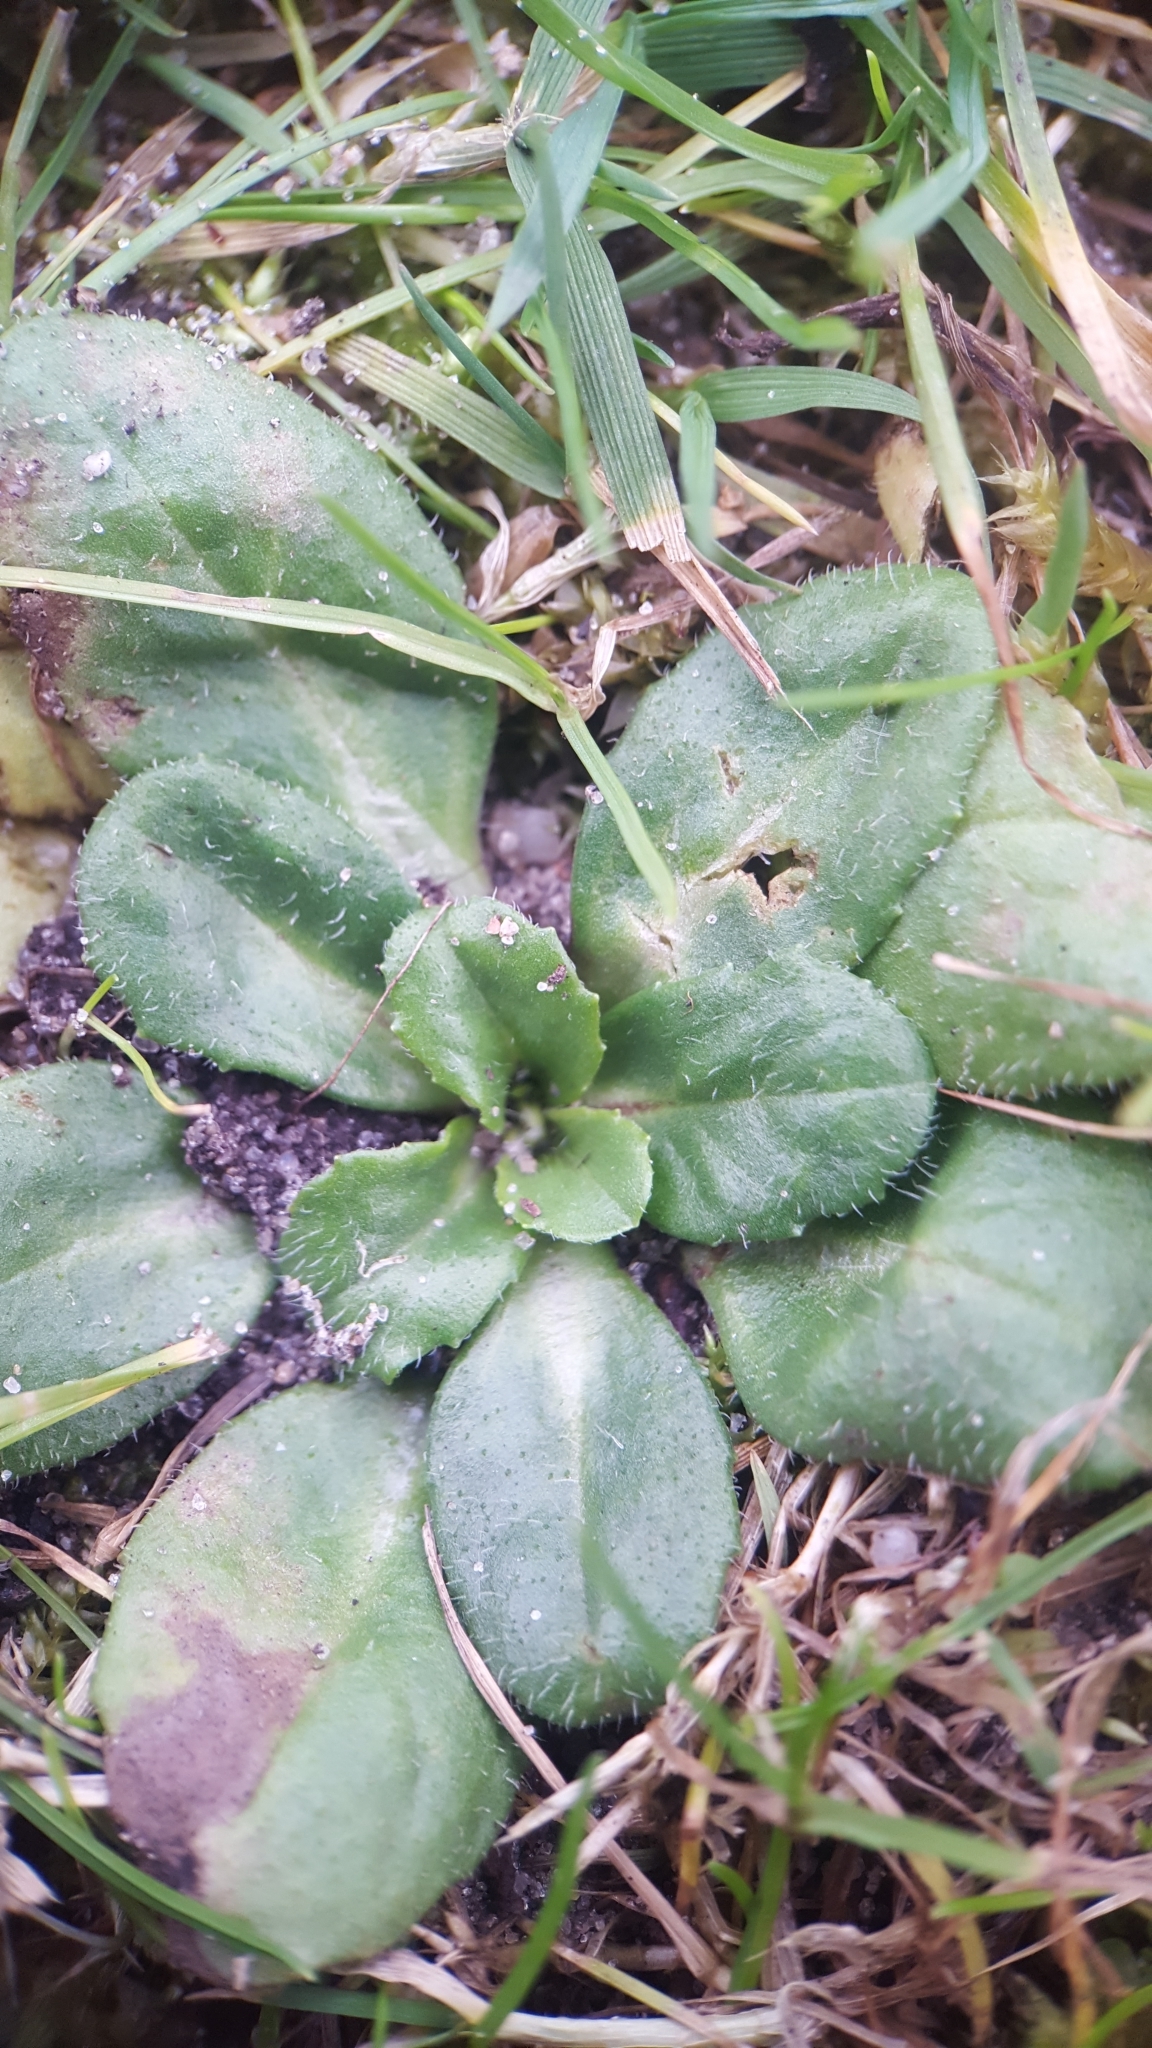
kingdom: Plantae
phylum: Tracheophyta
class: Magnoliopsida
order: Asterales
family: Asteraceae
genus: Bellis
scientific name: Bellis perennis
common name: Lawndaisy
